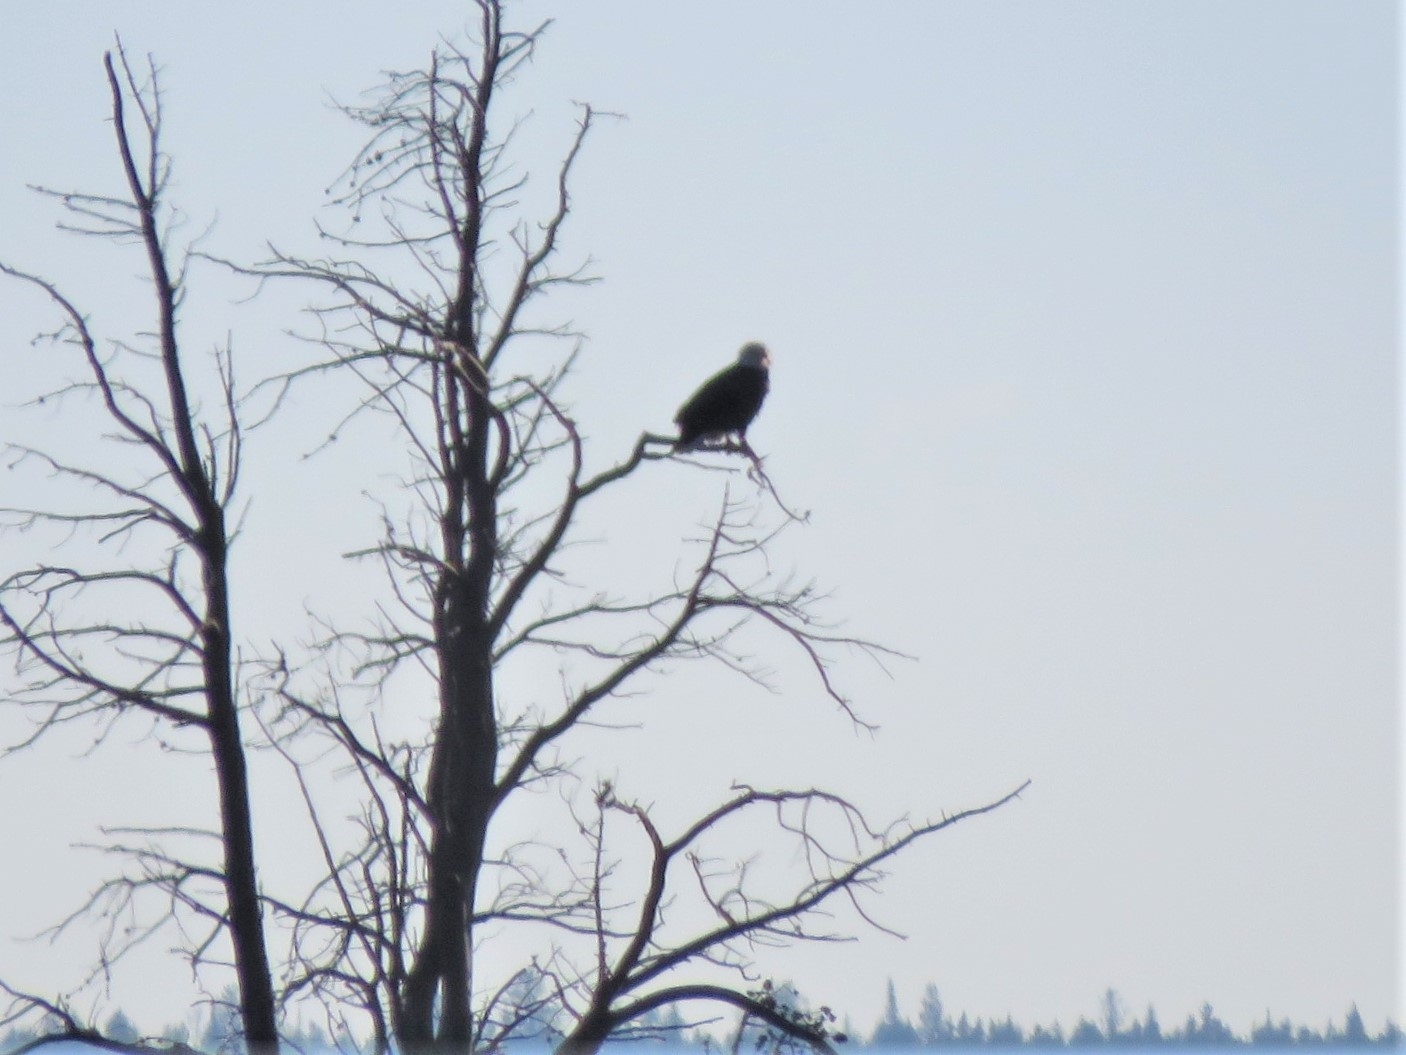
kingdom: Animalia
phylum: Chordata
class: Aves
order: Accipitriformes
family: Accipitridae
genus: Haliaeetus
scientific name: Haliaeetus leucocephalus
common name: Bald eagle
